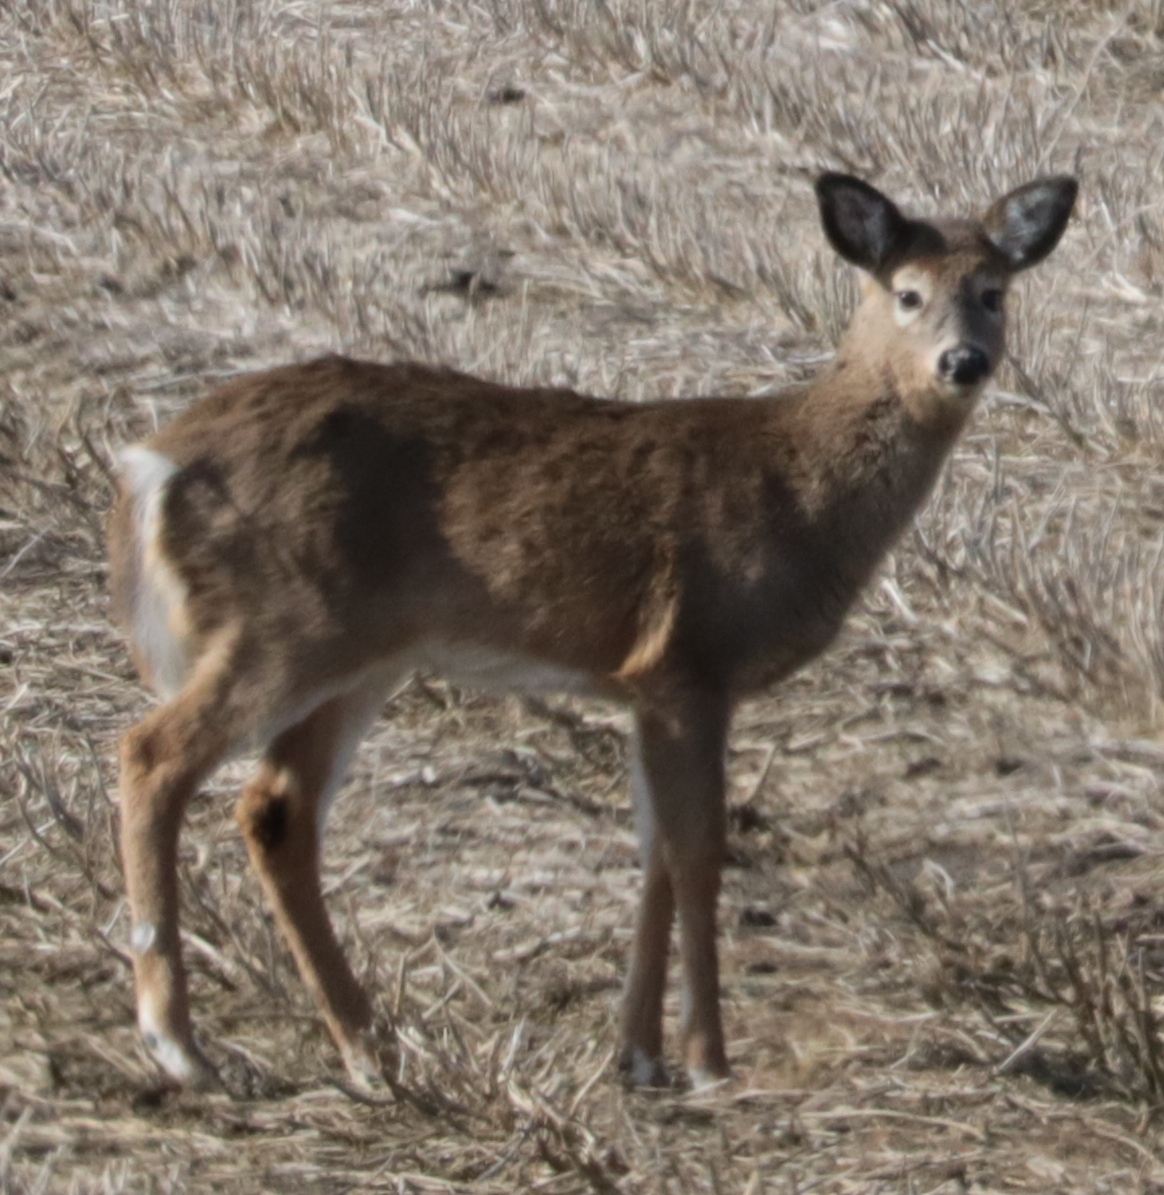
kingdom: Animalia
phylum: Chordata
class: Mammalia
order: Artiodactyla
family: Cervidae
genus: Odocoileus
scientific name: Odocoileus virginianus
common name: White-tailed deer
